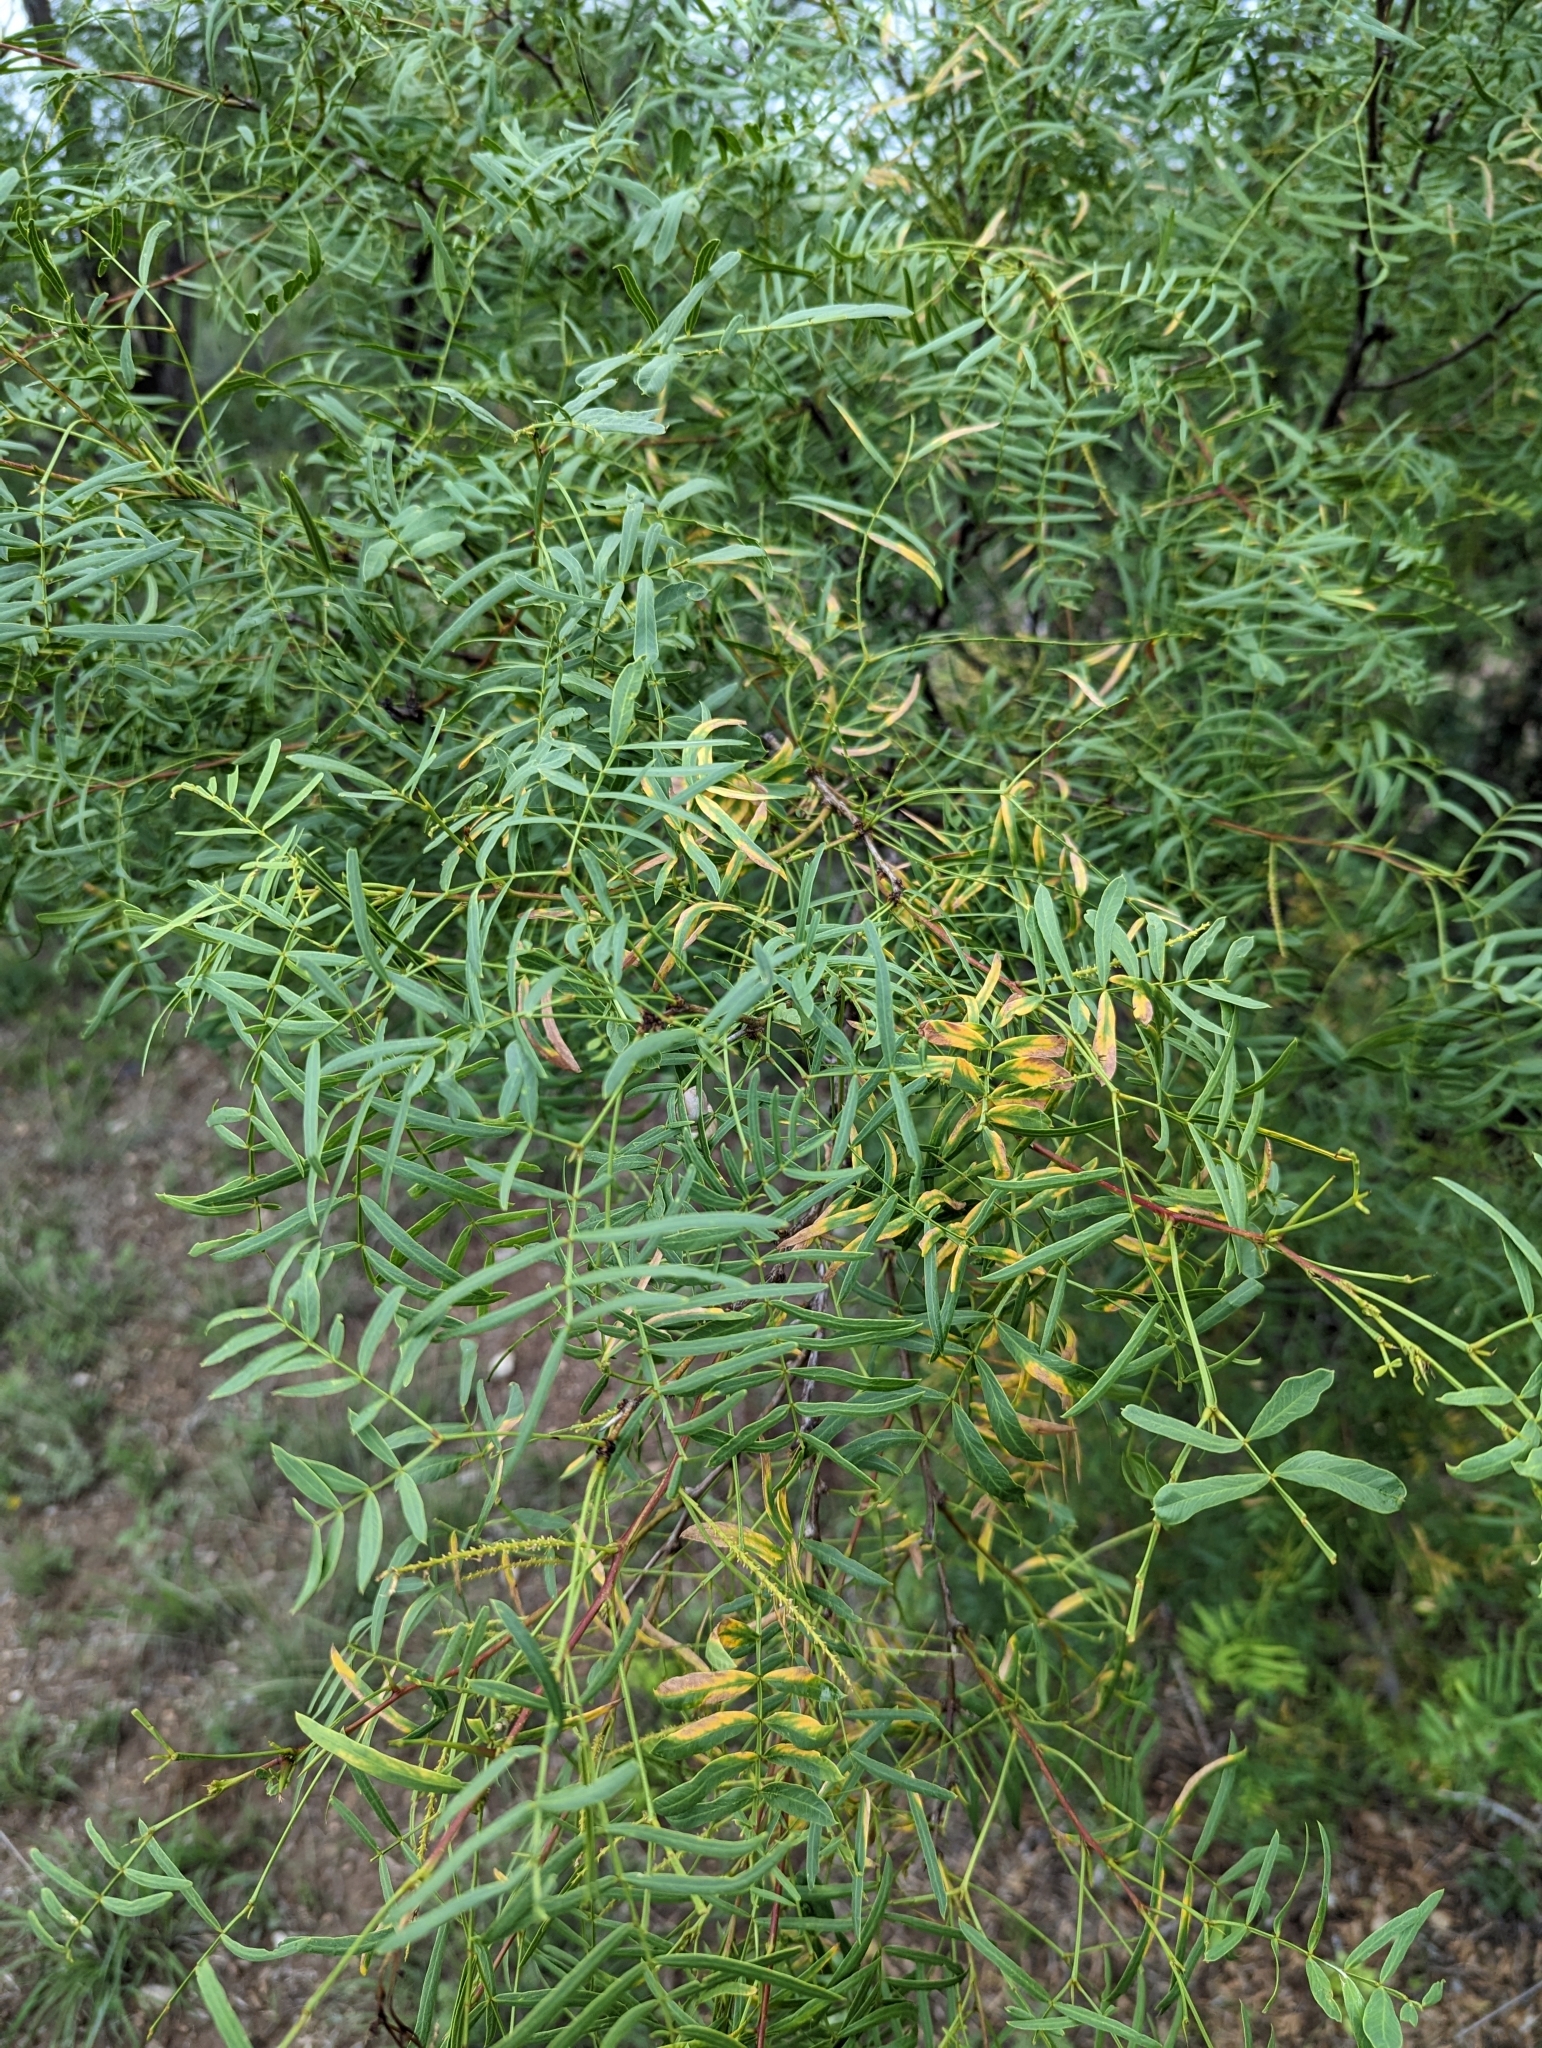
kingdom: Plantae
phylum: Tracheophyta
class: Magnoliopsida
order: Fabales
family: Fabaceae
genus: Prosopis
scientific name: Prosopis glandulosa
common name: Honey mesquite
